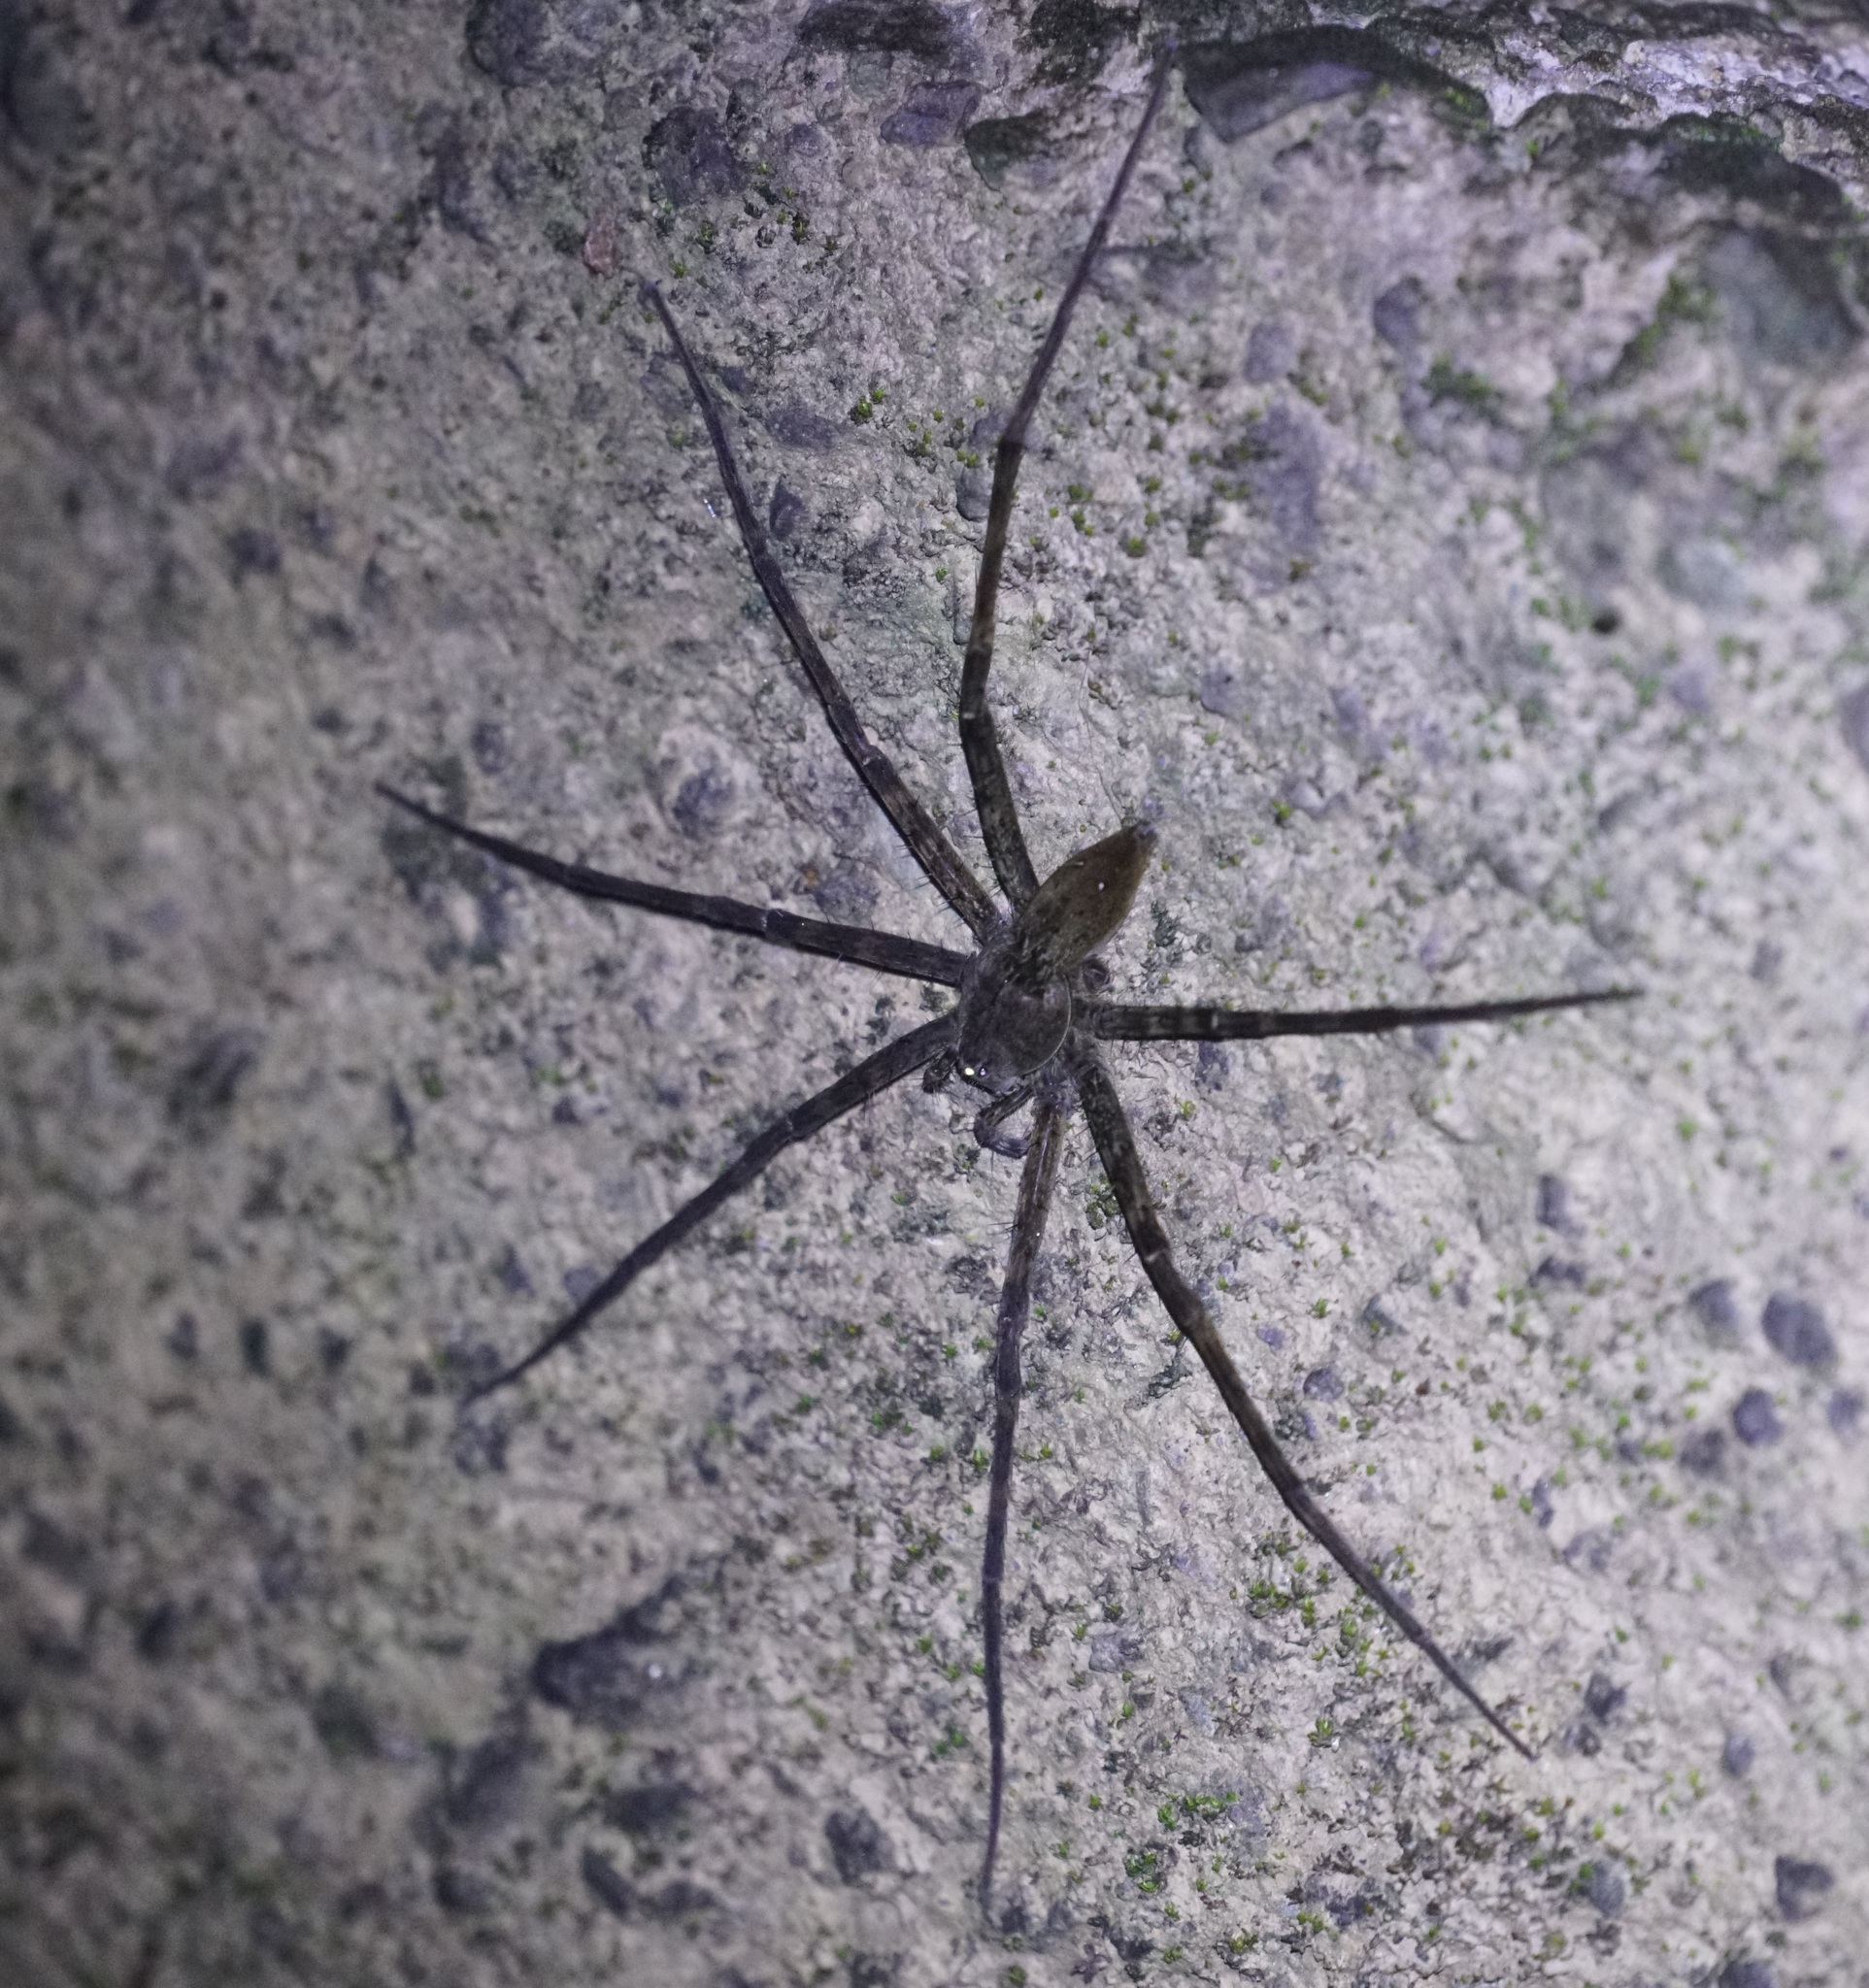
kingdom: Animalia
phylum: Arthropoda
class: Arachnida
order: Araneae
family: Pisauridae
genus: Megadolomedes
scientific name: Megadolomedes trux
